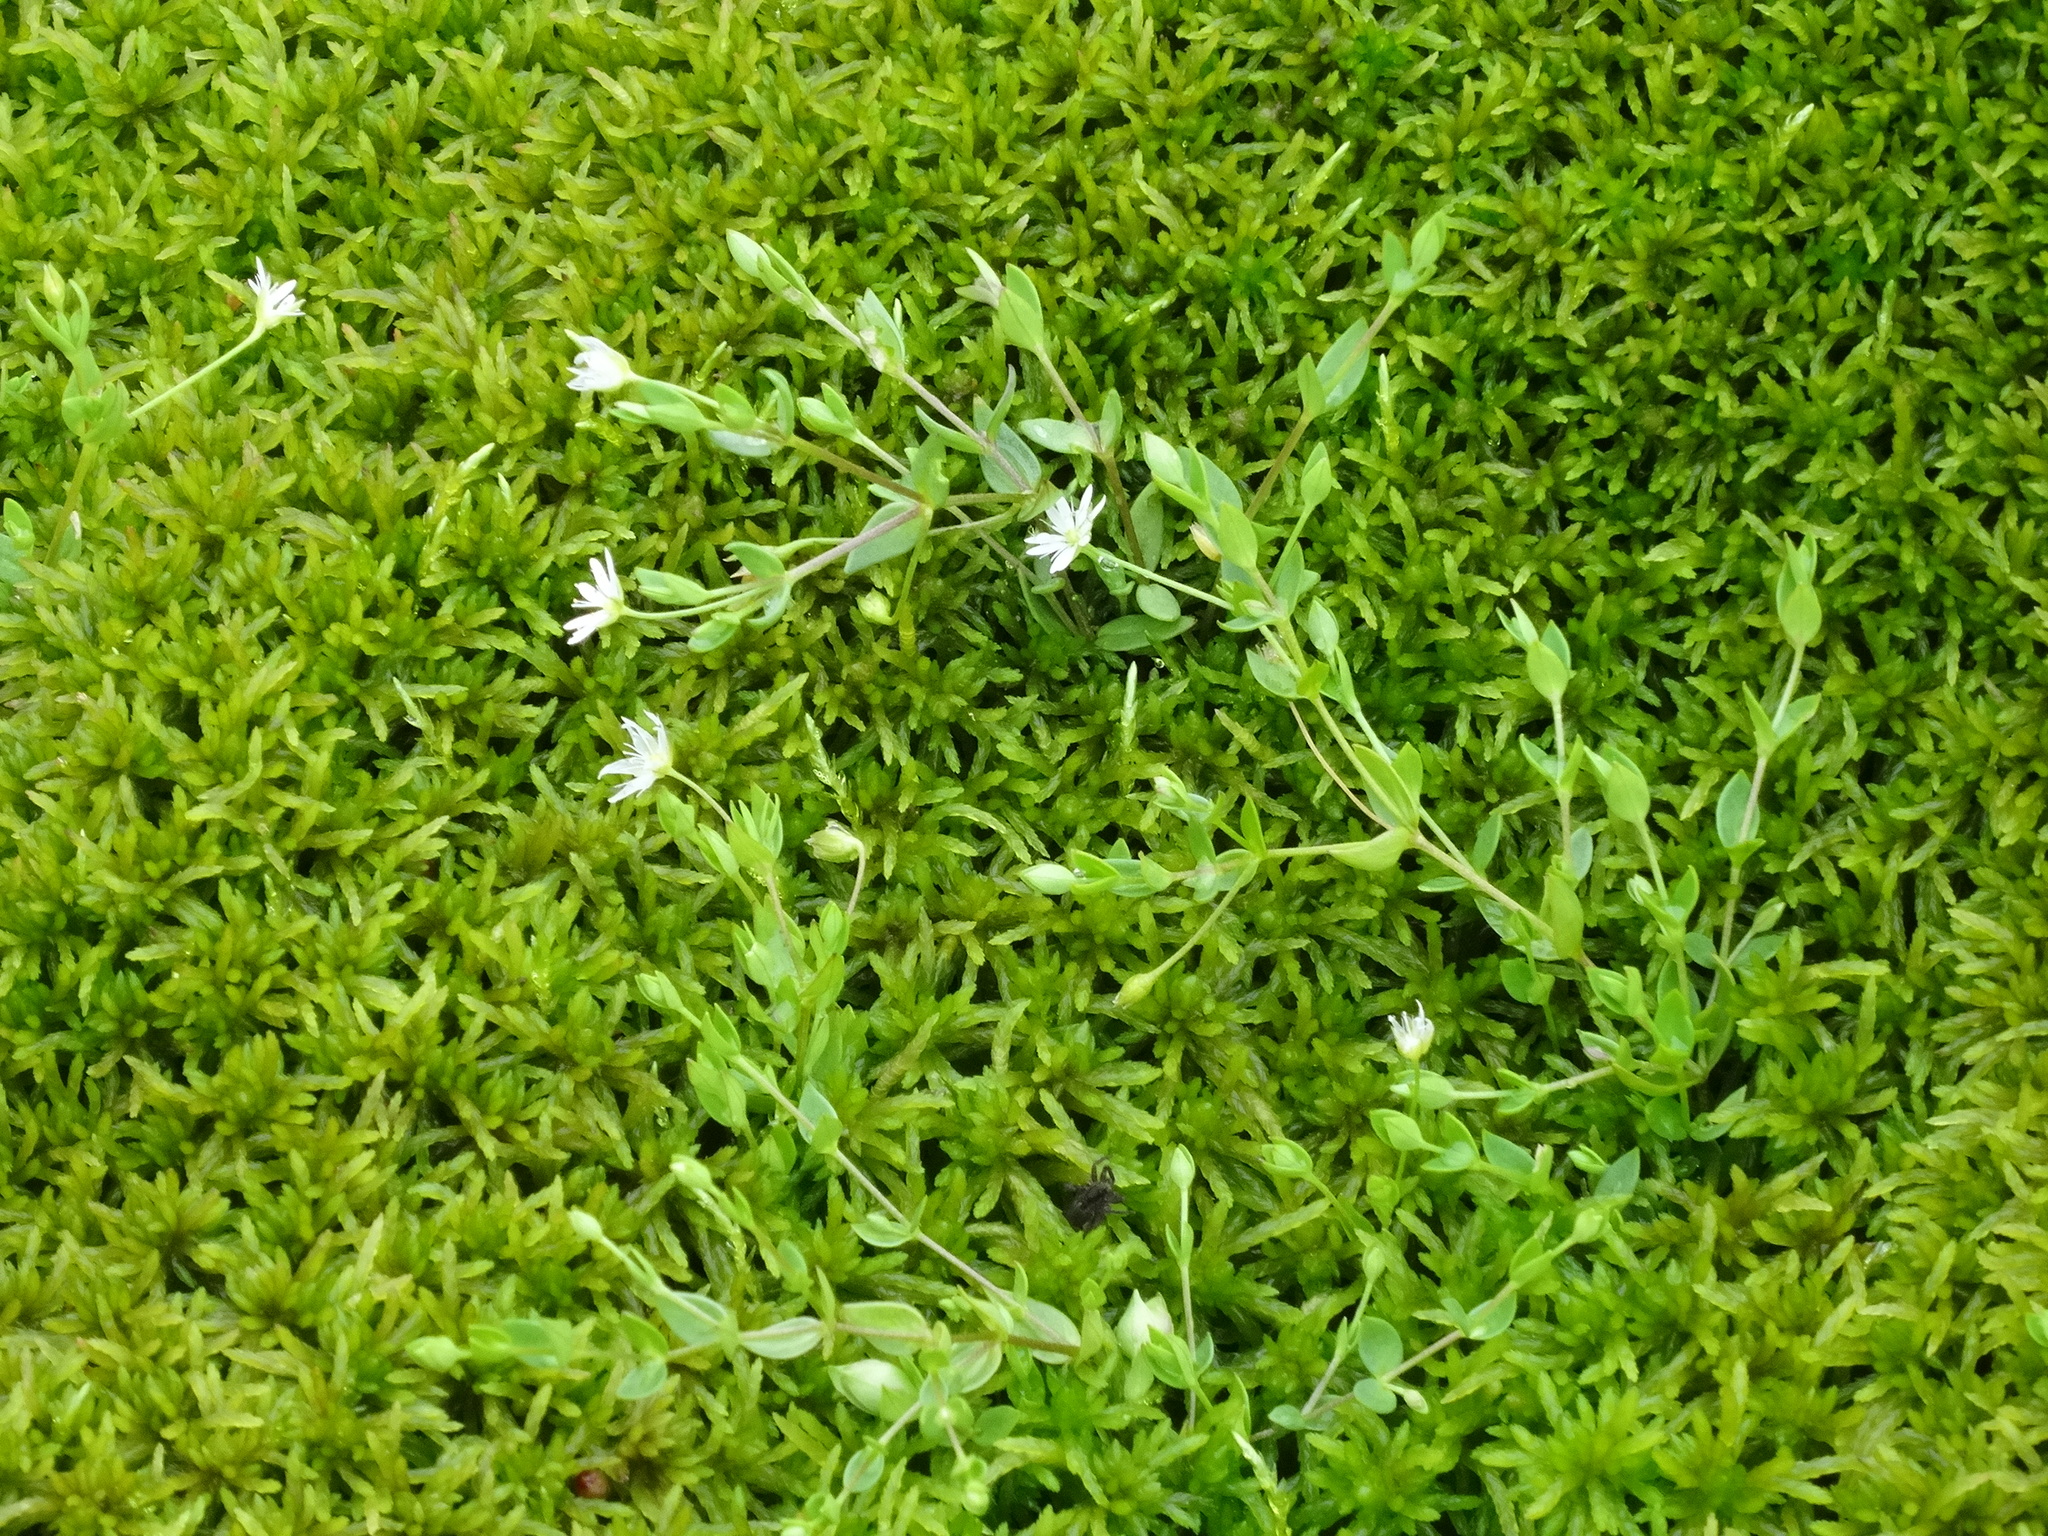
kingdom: Plantae
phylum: Tracheophyta
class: Magnoliopsida
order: Caryophyllales
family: Caryophyllaceae
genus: Stellaria
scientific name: Stellaria crassifolia
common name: Fleshy starwort
